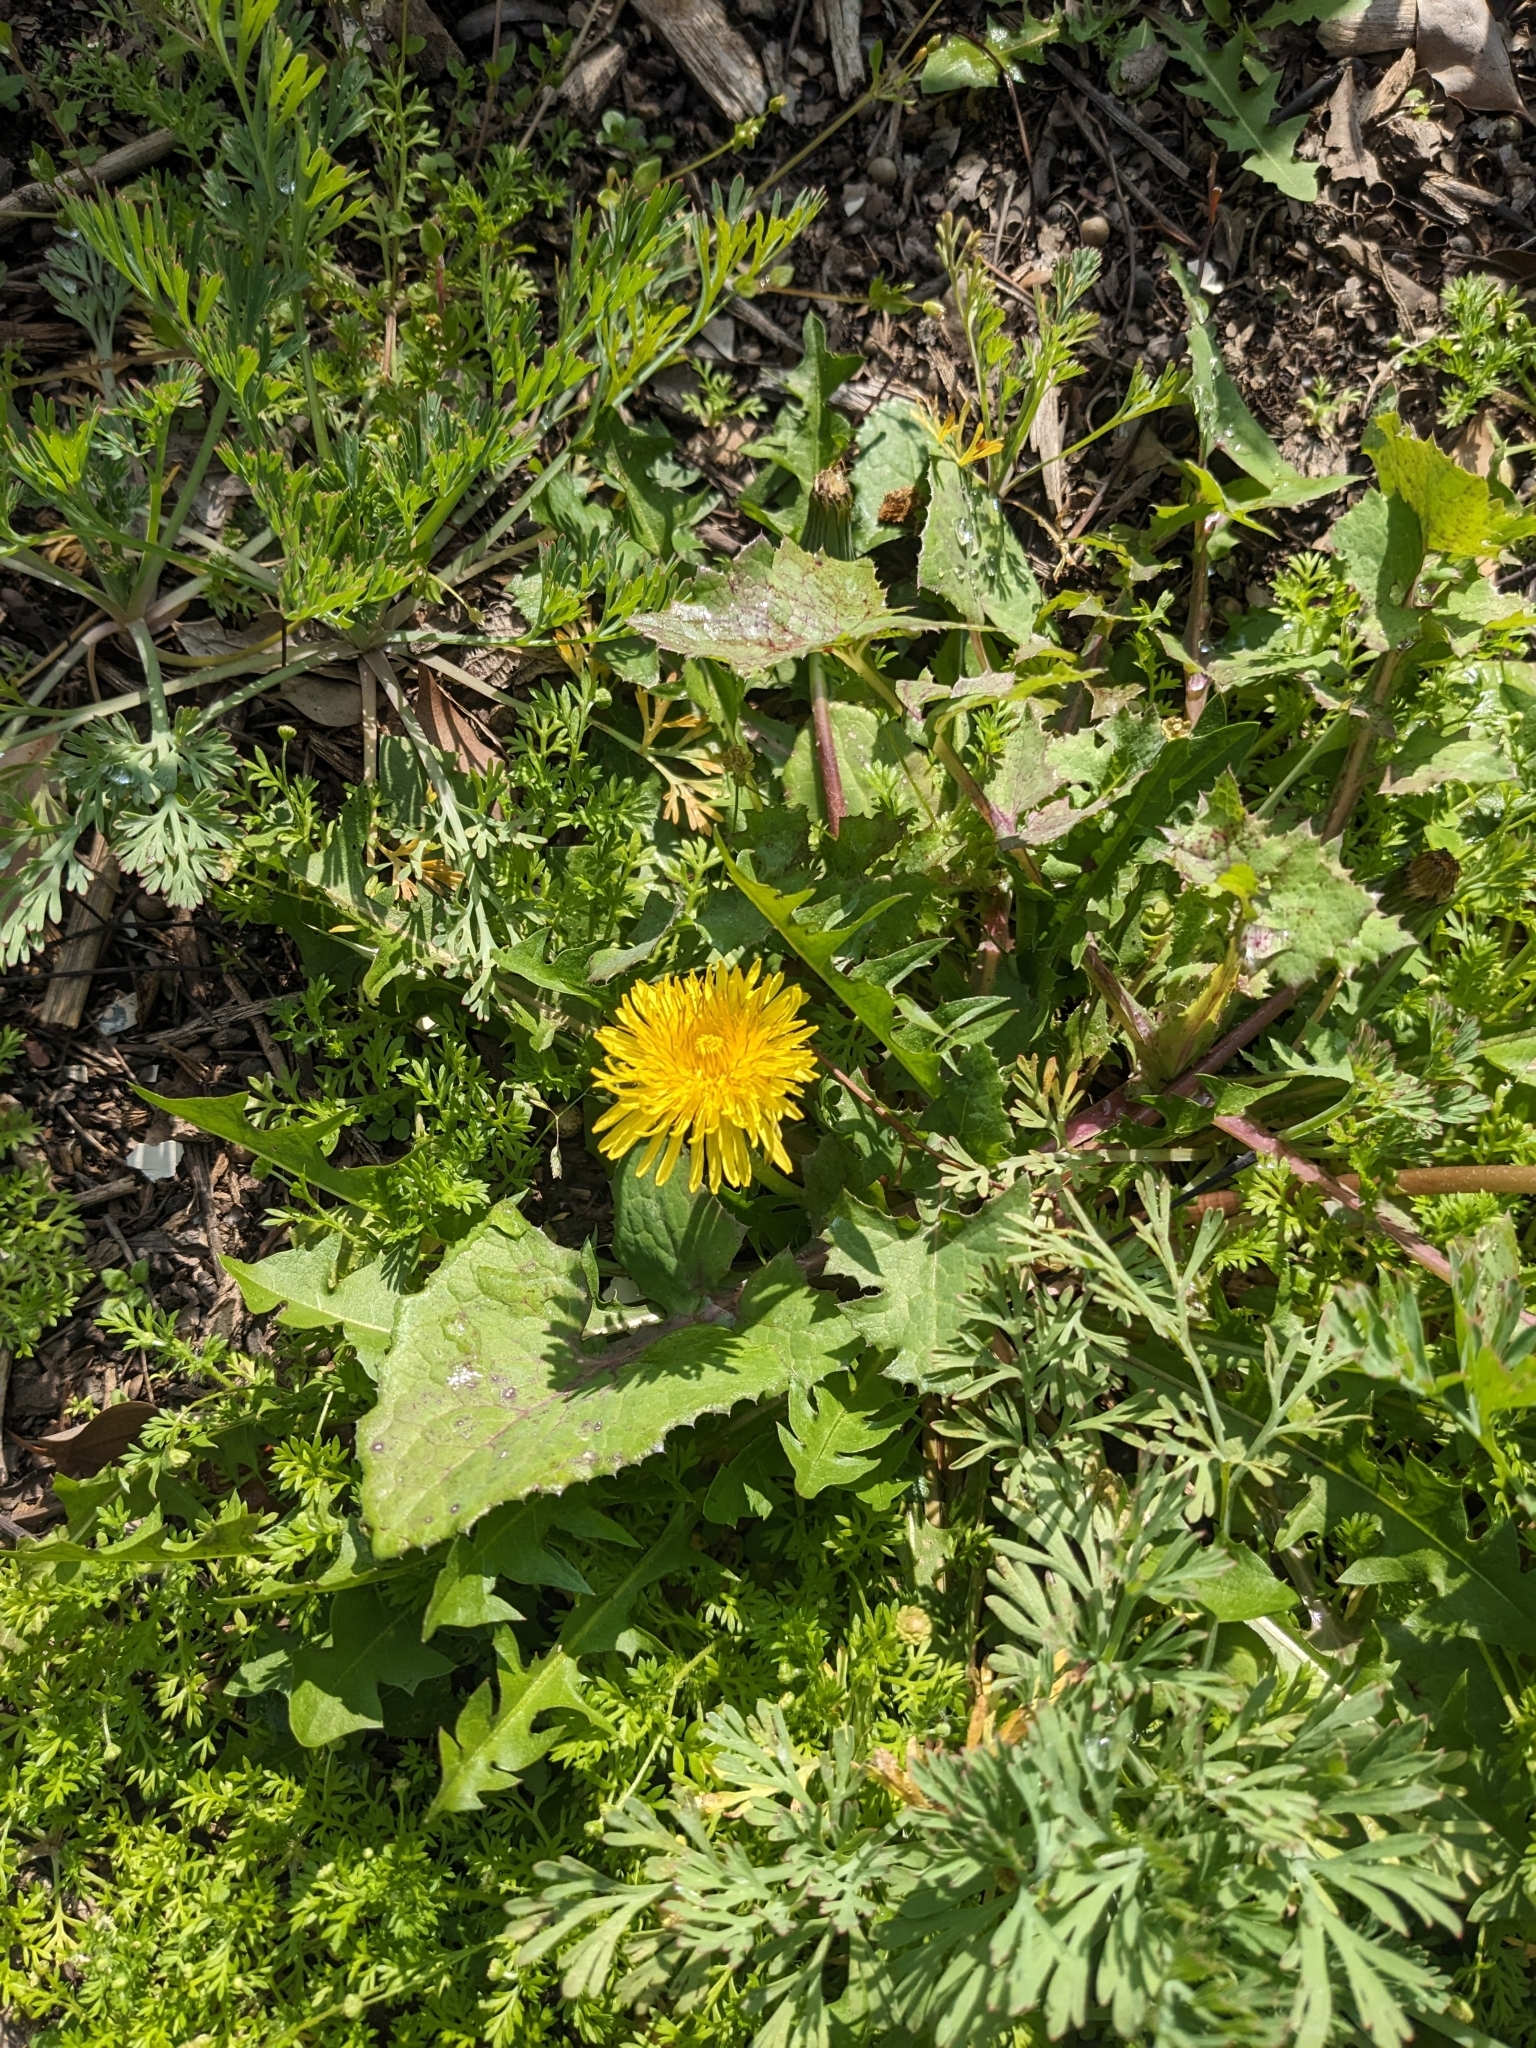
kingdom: Plantae
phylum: Tracheophyta
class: Magnoliopsida
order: Asterales
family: Asteraceae
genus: Taraxacum
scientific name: Taraxacum officinale
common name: Common dandelion
